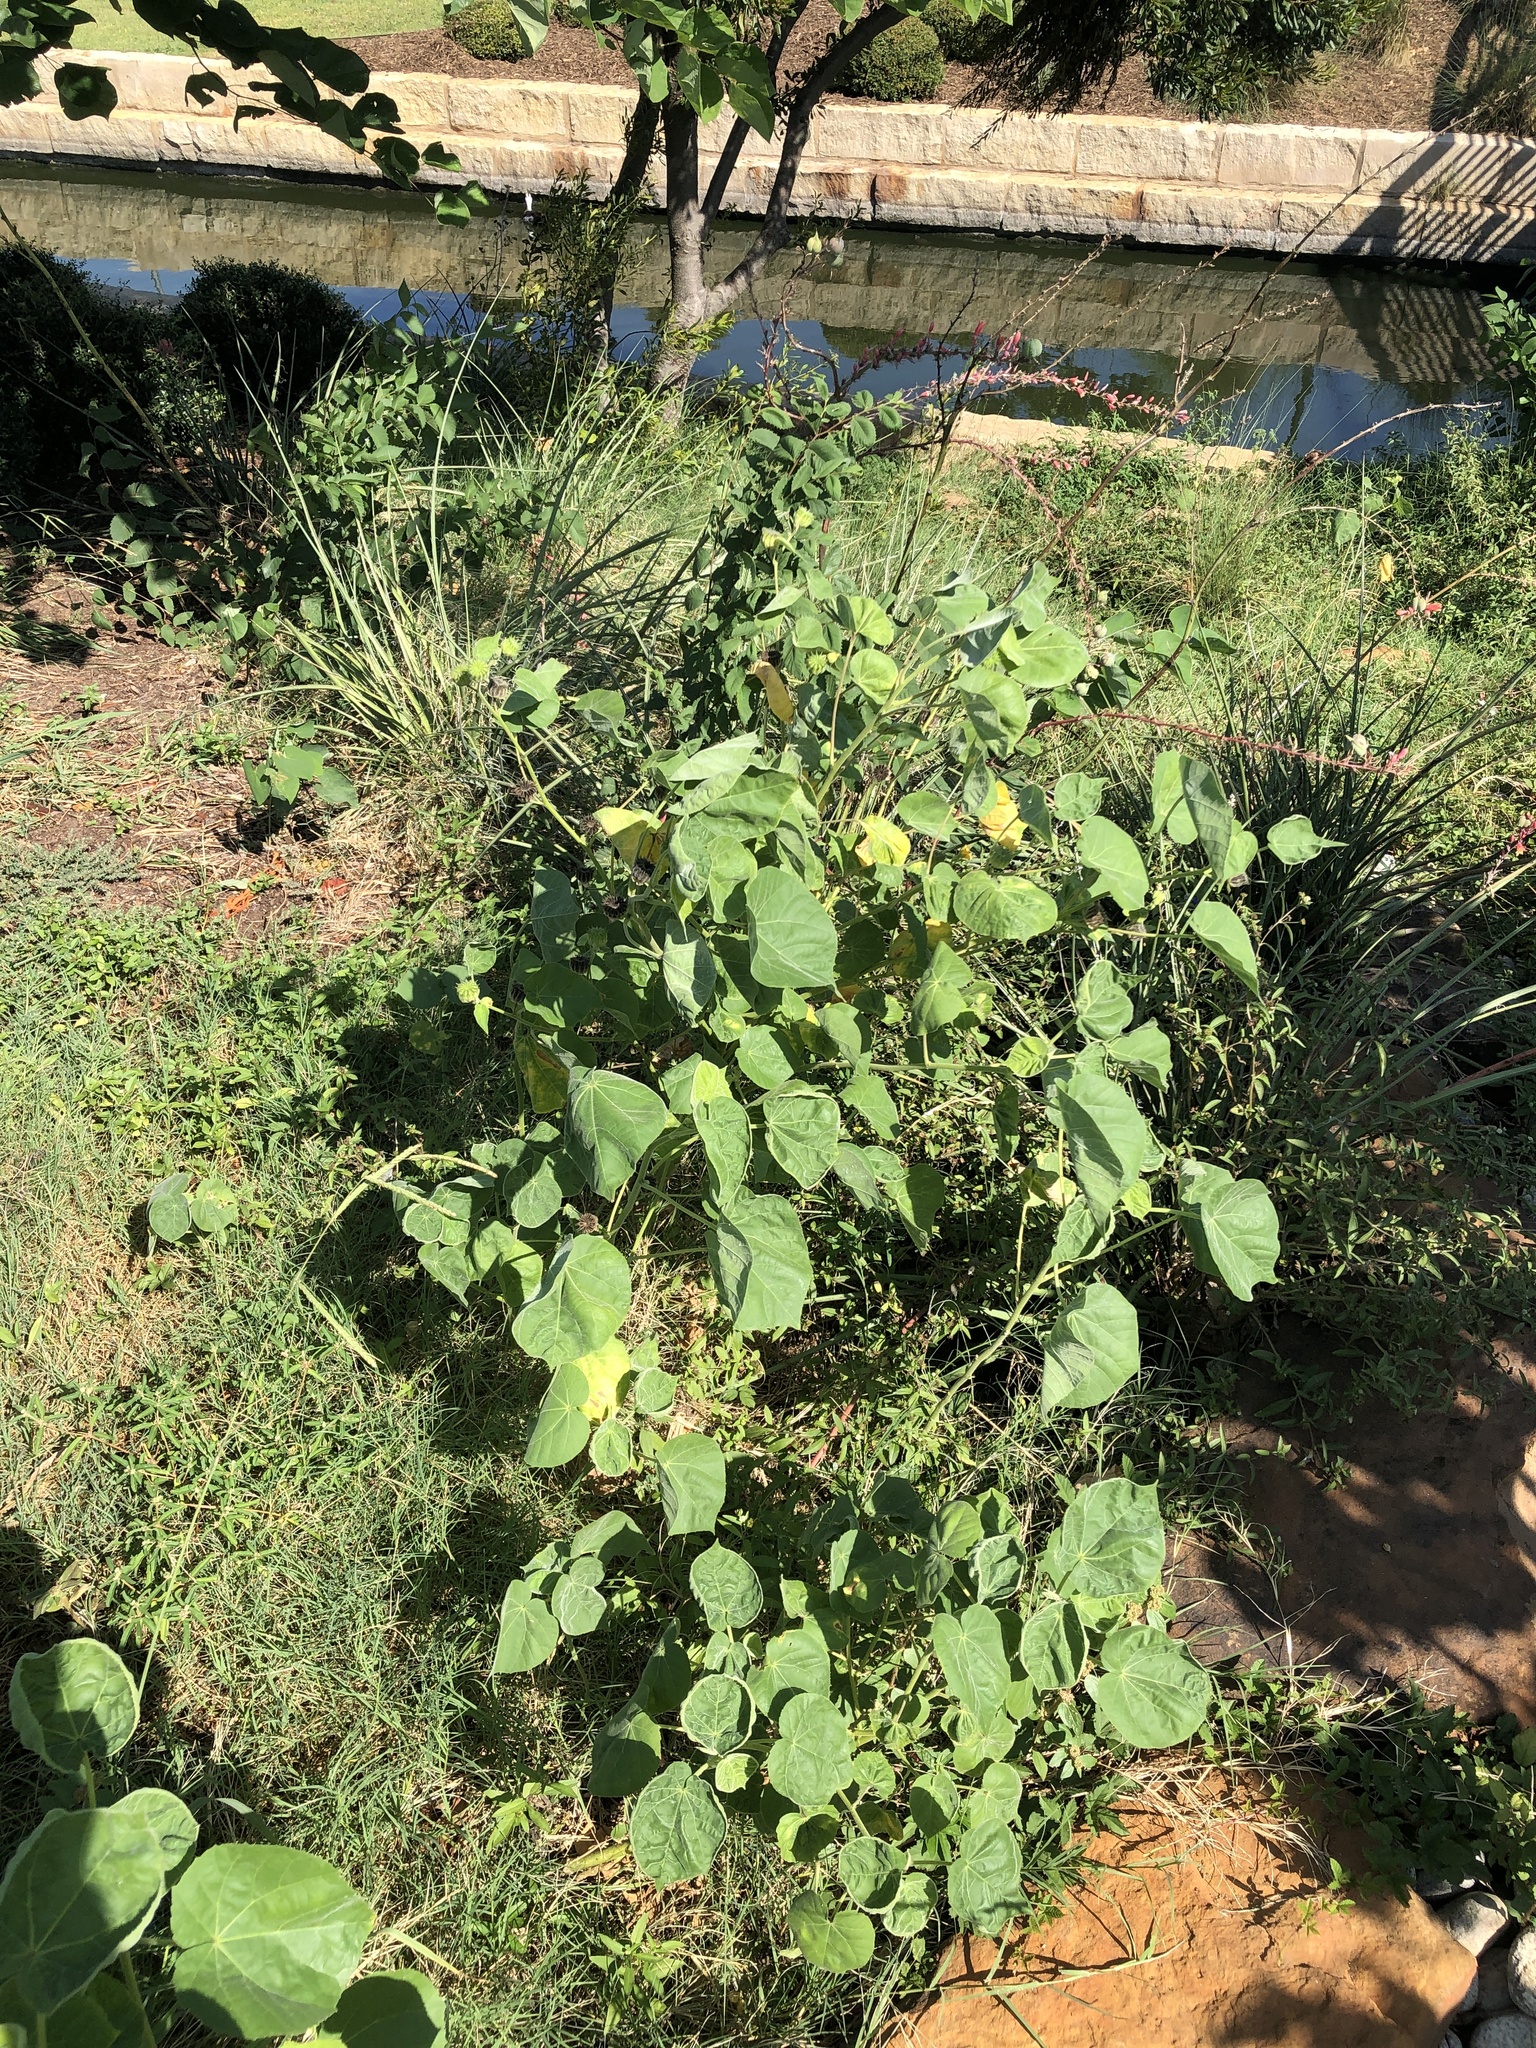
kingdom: Plantae
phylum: Tracheophyta
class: Magnoliopsida
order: Malvales
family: Malvaceae
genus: Abutilon
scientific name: Abutilon theophrasti
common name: Velvetleaf
